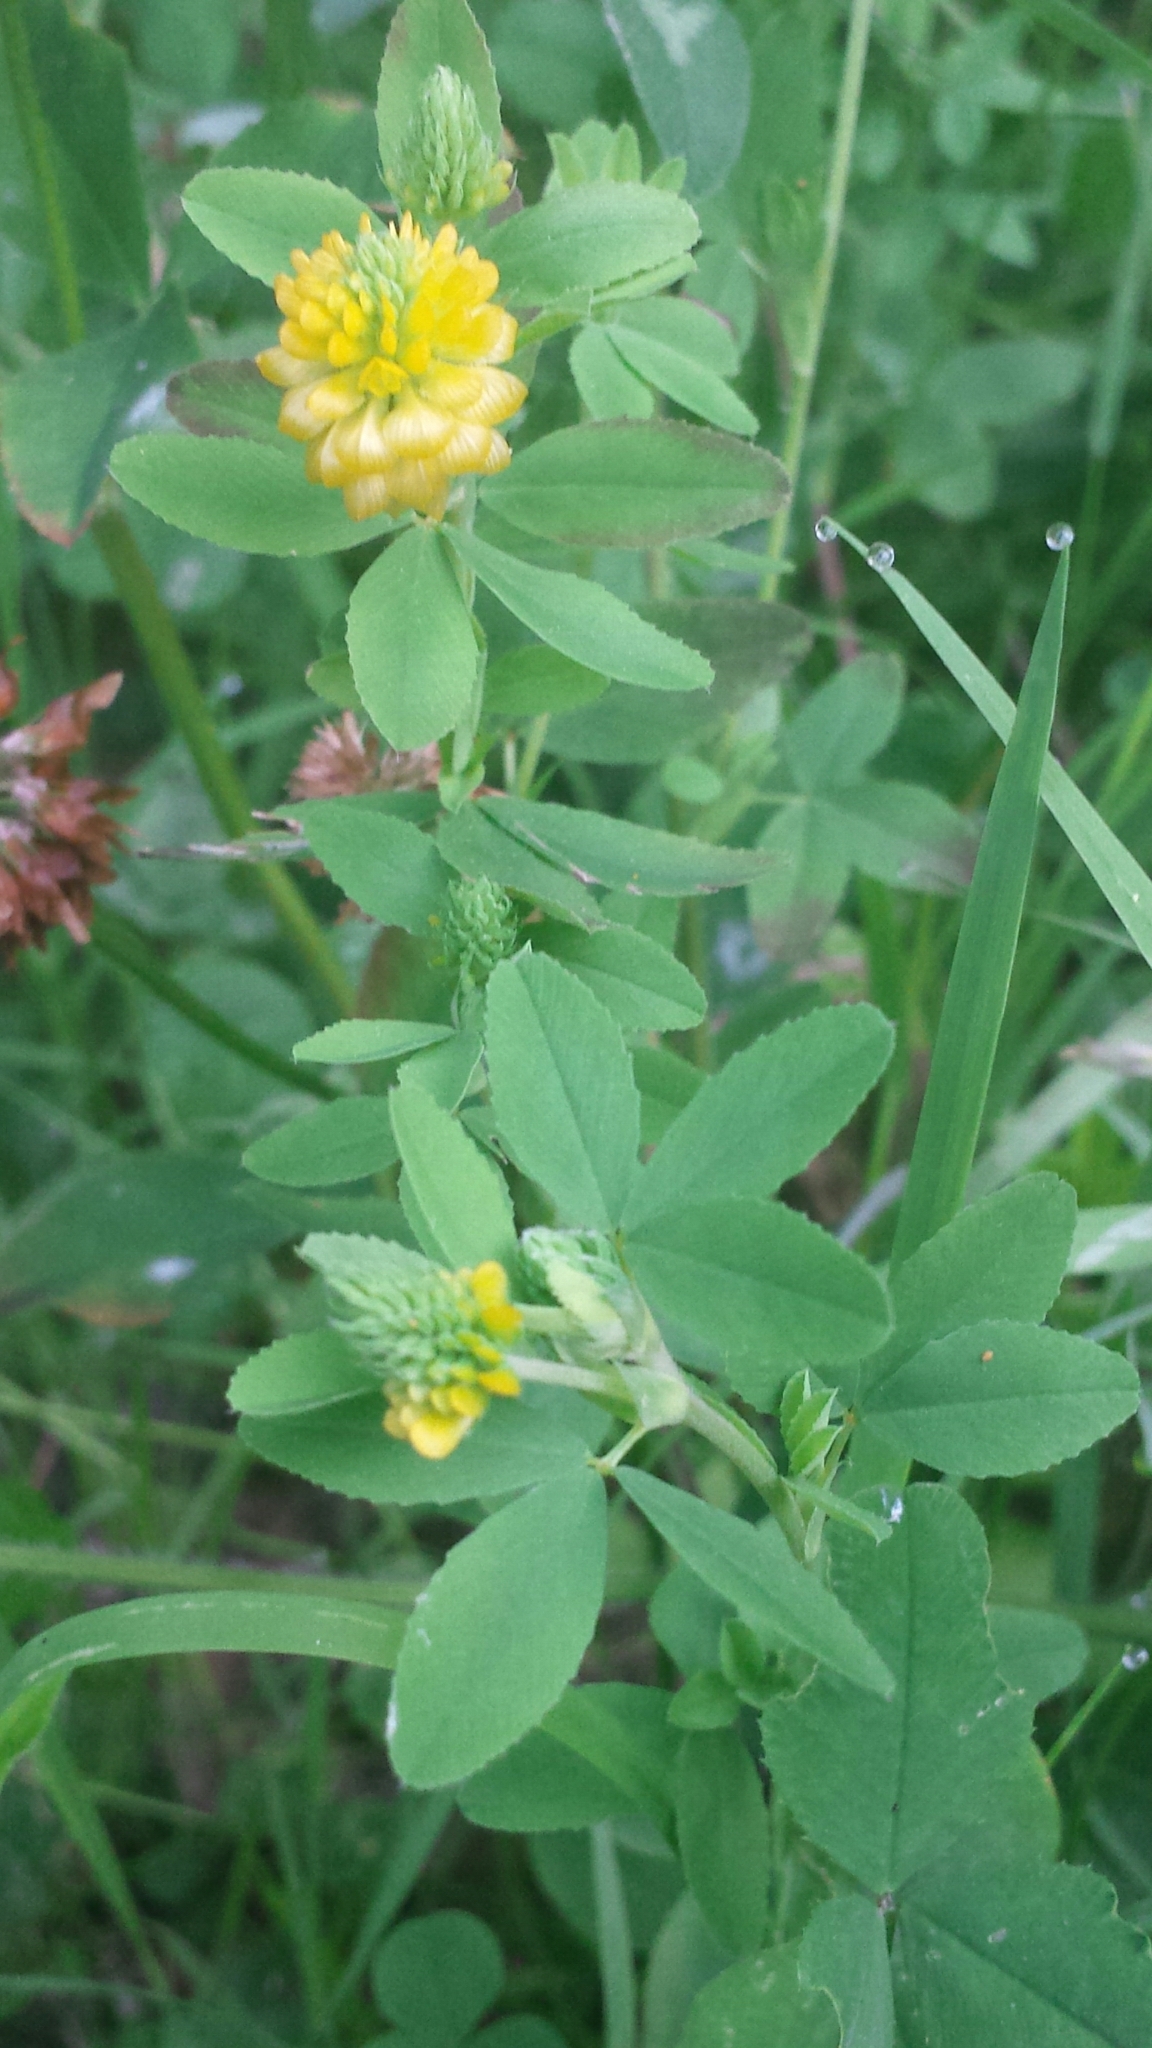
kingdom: Plantae
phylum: Tracheophyta
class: Magnoliopsida
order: Fabales
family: Fabaceae
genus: Trifolium
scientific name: Trifolium aureum
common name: Golden clover
